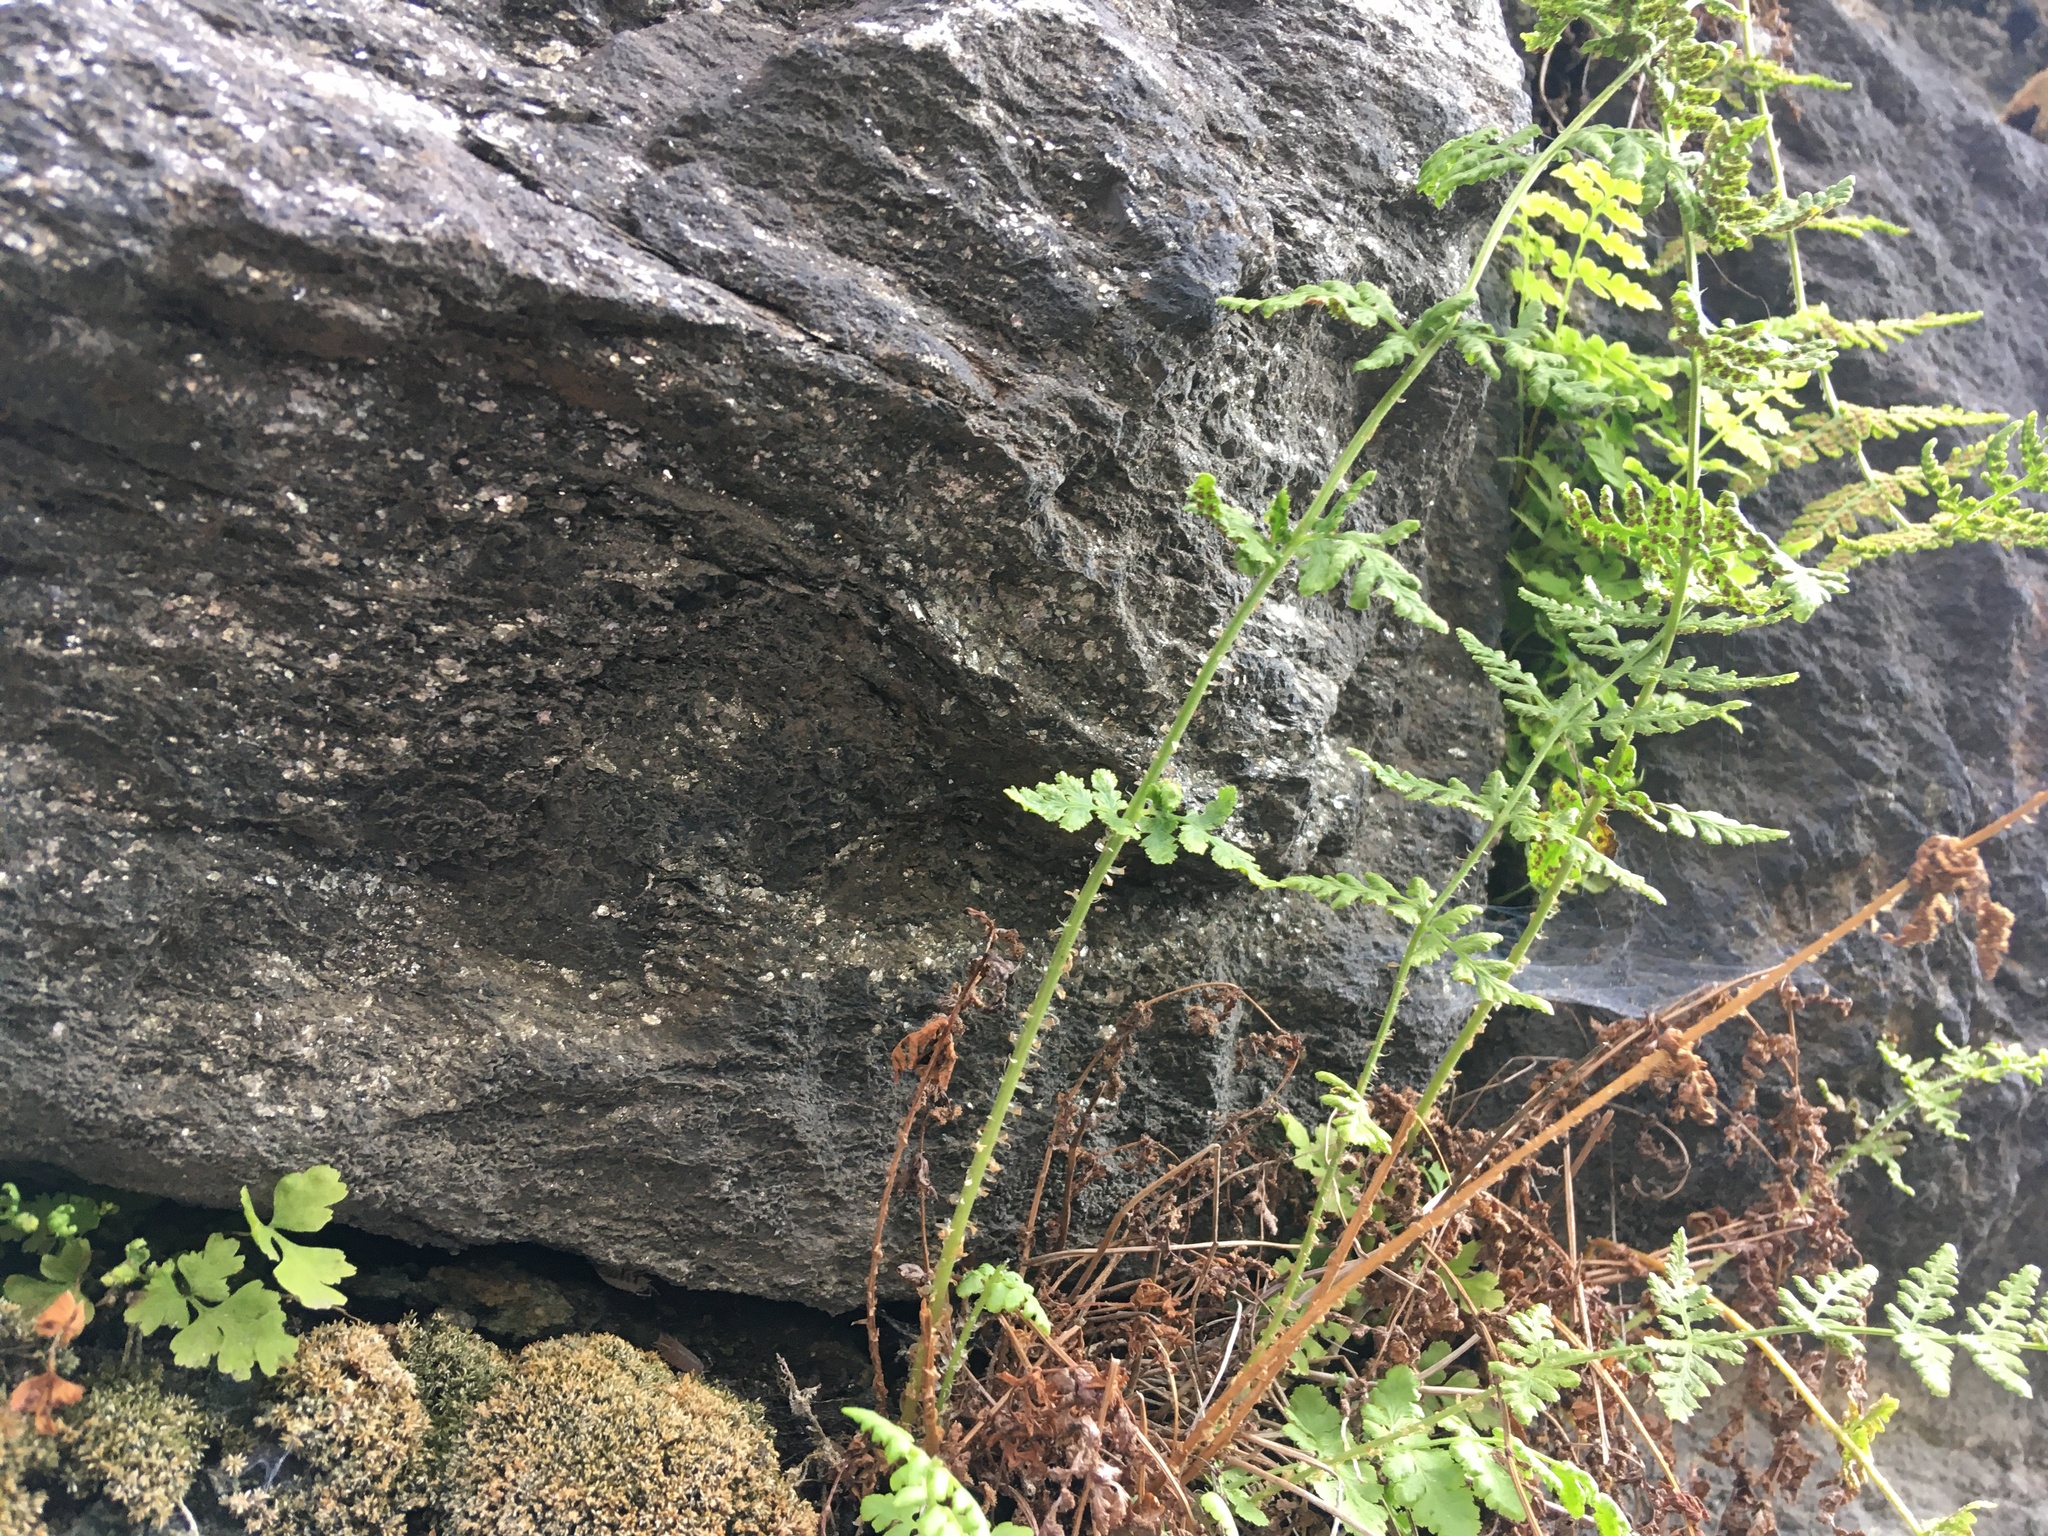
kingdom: Plantae
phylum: Tracheophyta
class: Polypodiopsida
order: Polypodiales
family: Woodsiaceae
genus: Physematium
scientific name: Physematium obtusum
